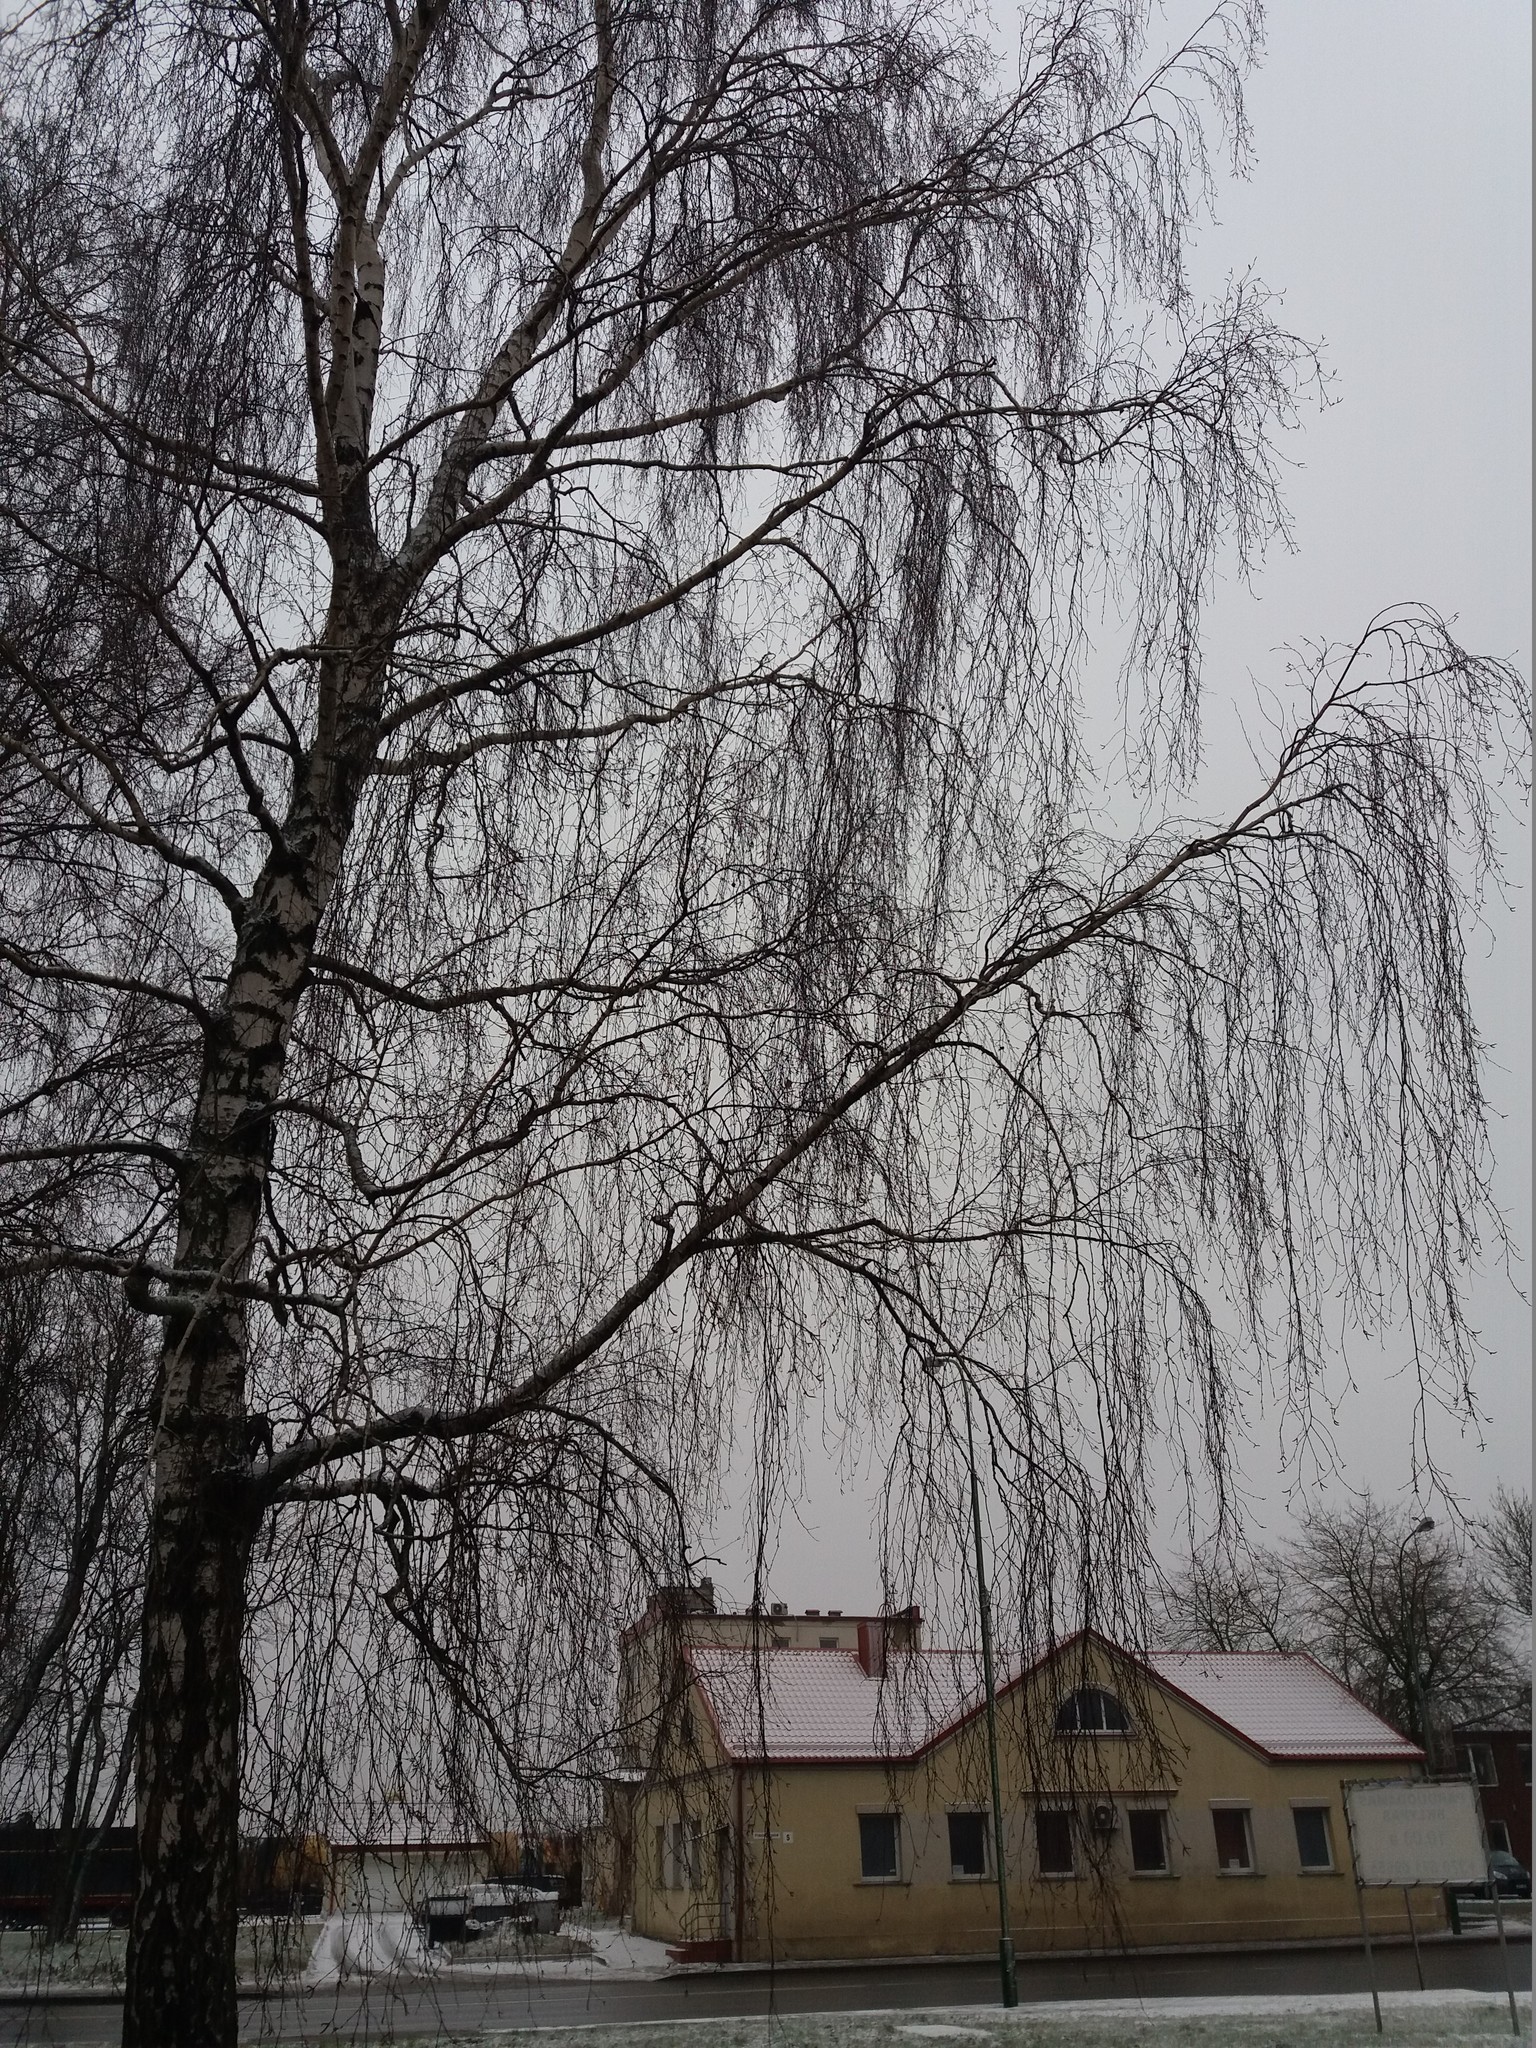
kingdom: Plantae
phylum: Tracheophyta
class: Magnoliopsida
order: Fagales
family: Betulaceae
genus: Betula
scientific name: Betula pendula
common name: Silver birch
